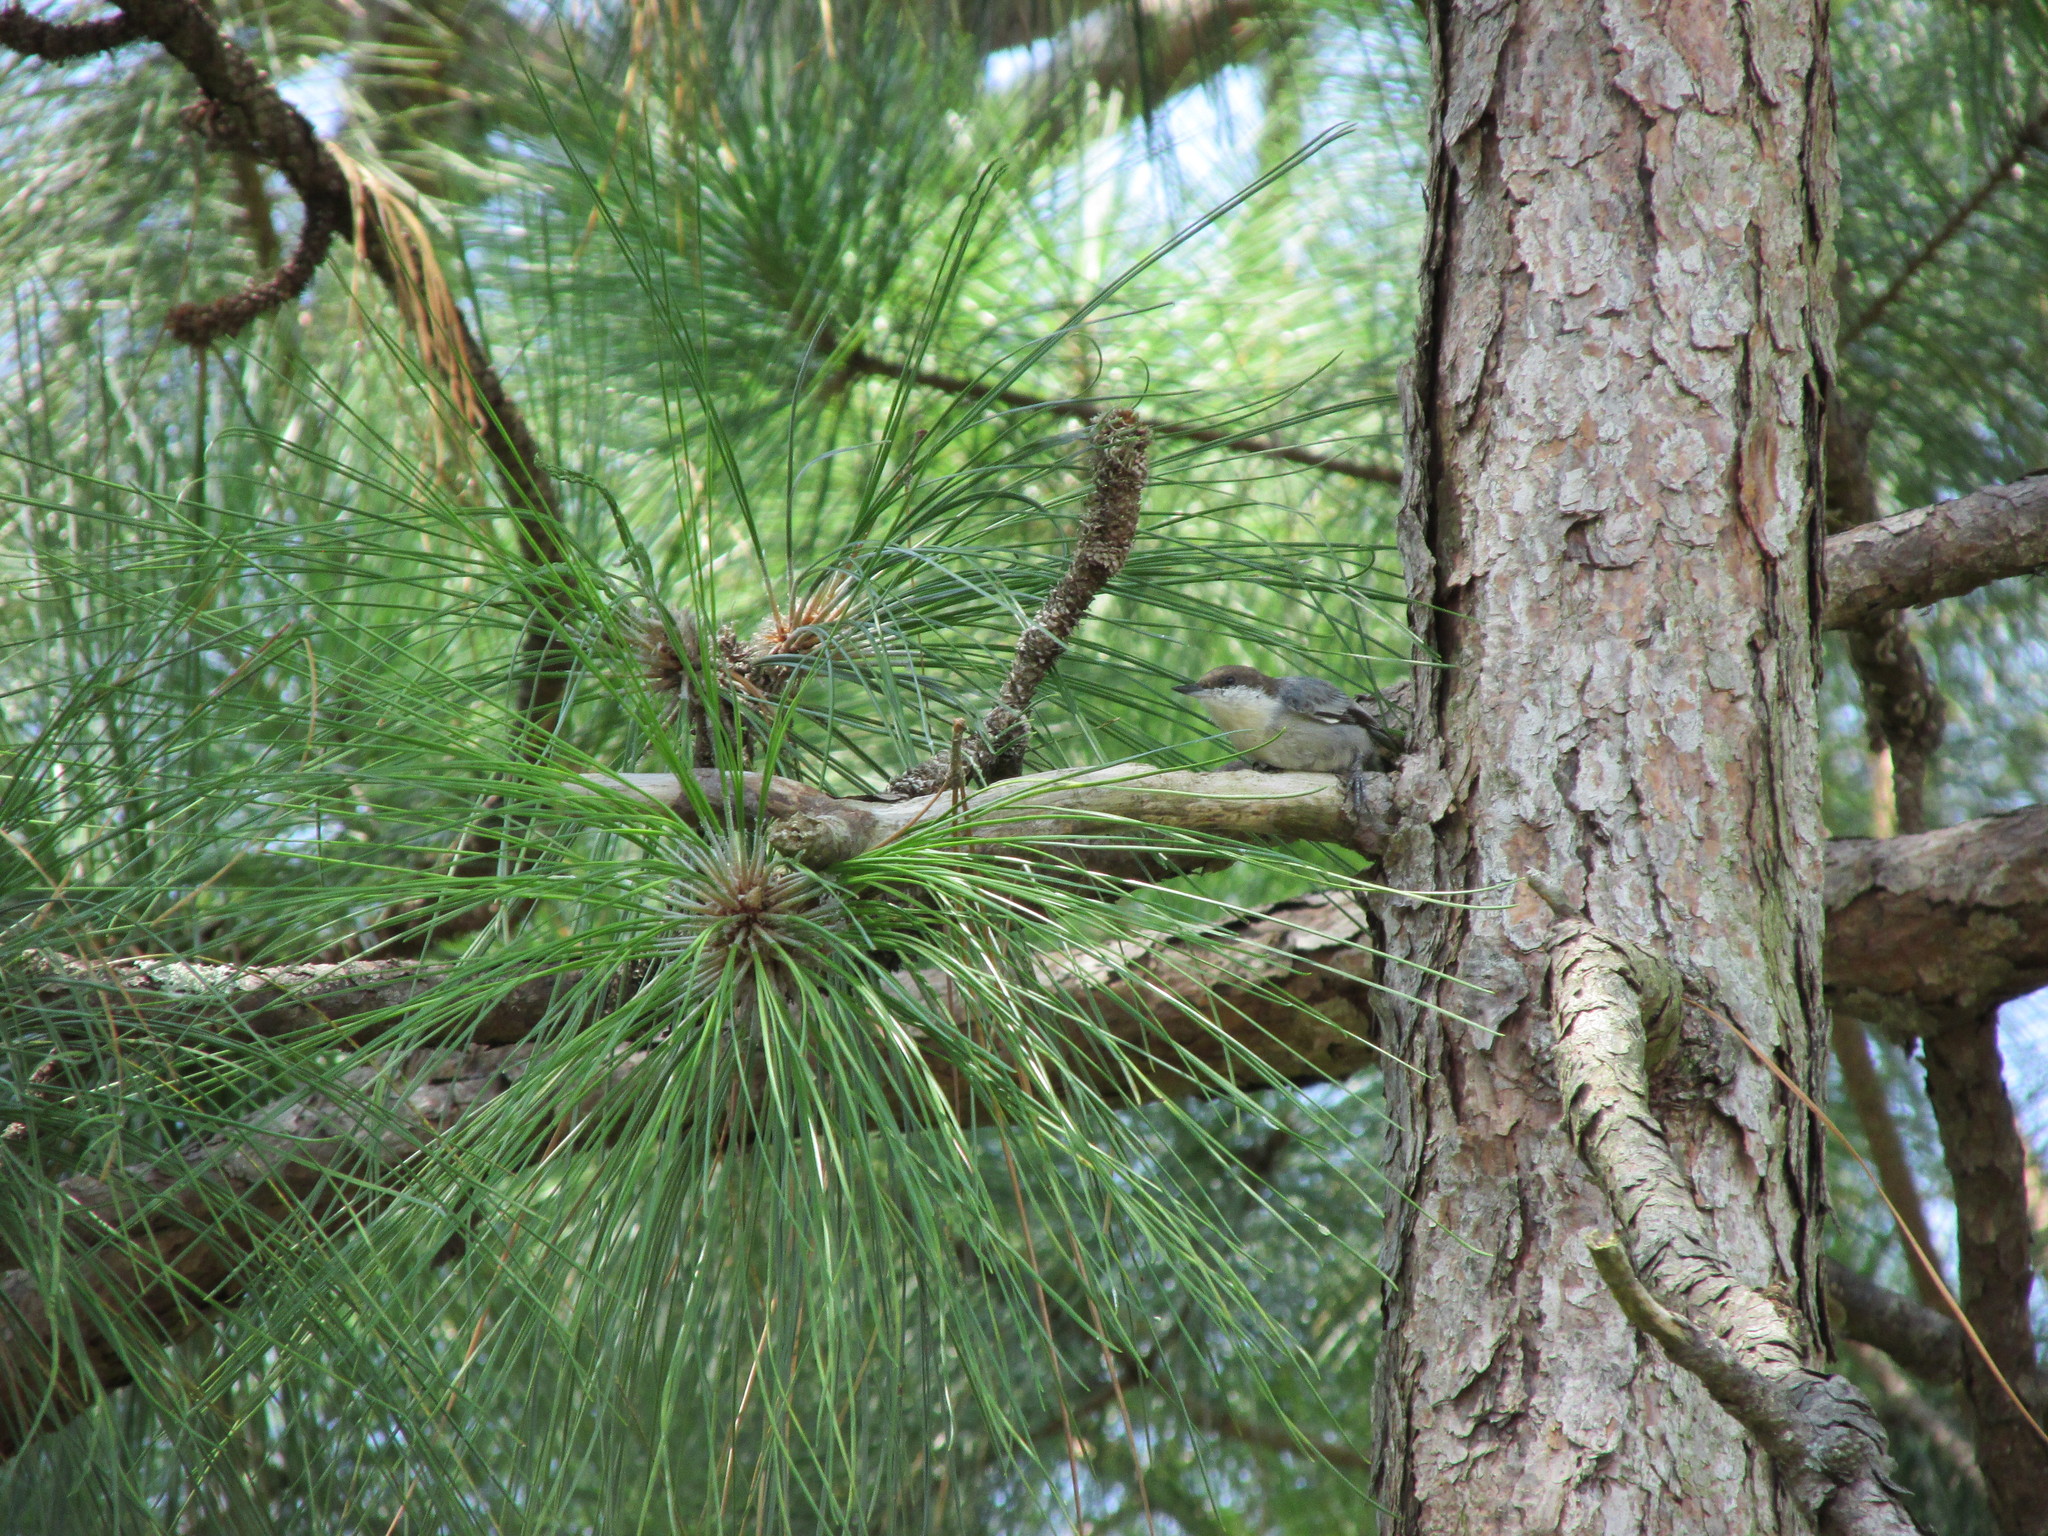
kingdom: Animalia
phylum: Chordata
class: Aves
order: Passeriformes
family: Sittidae
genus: Sitta
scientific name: Sitta pusilla
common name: Brown-headed nuthatch
